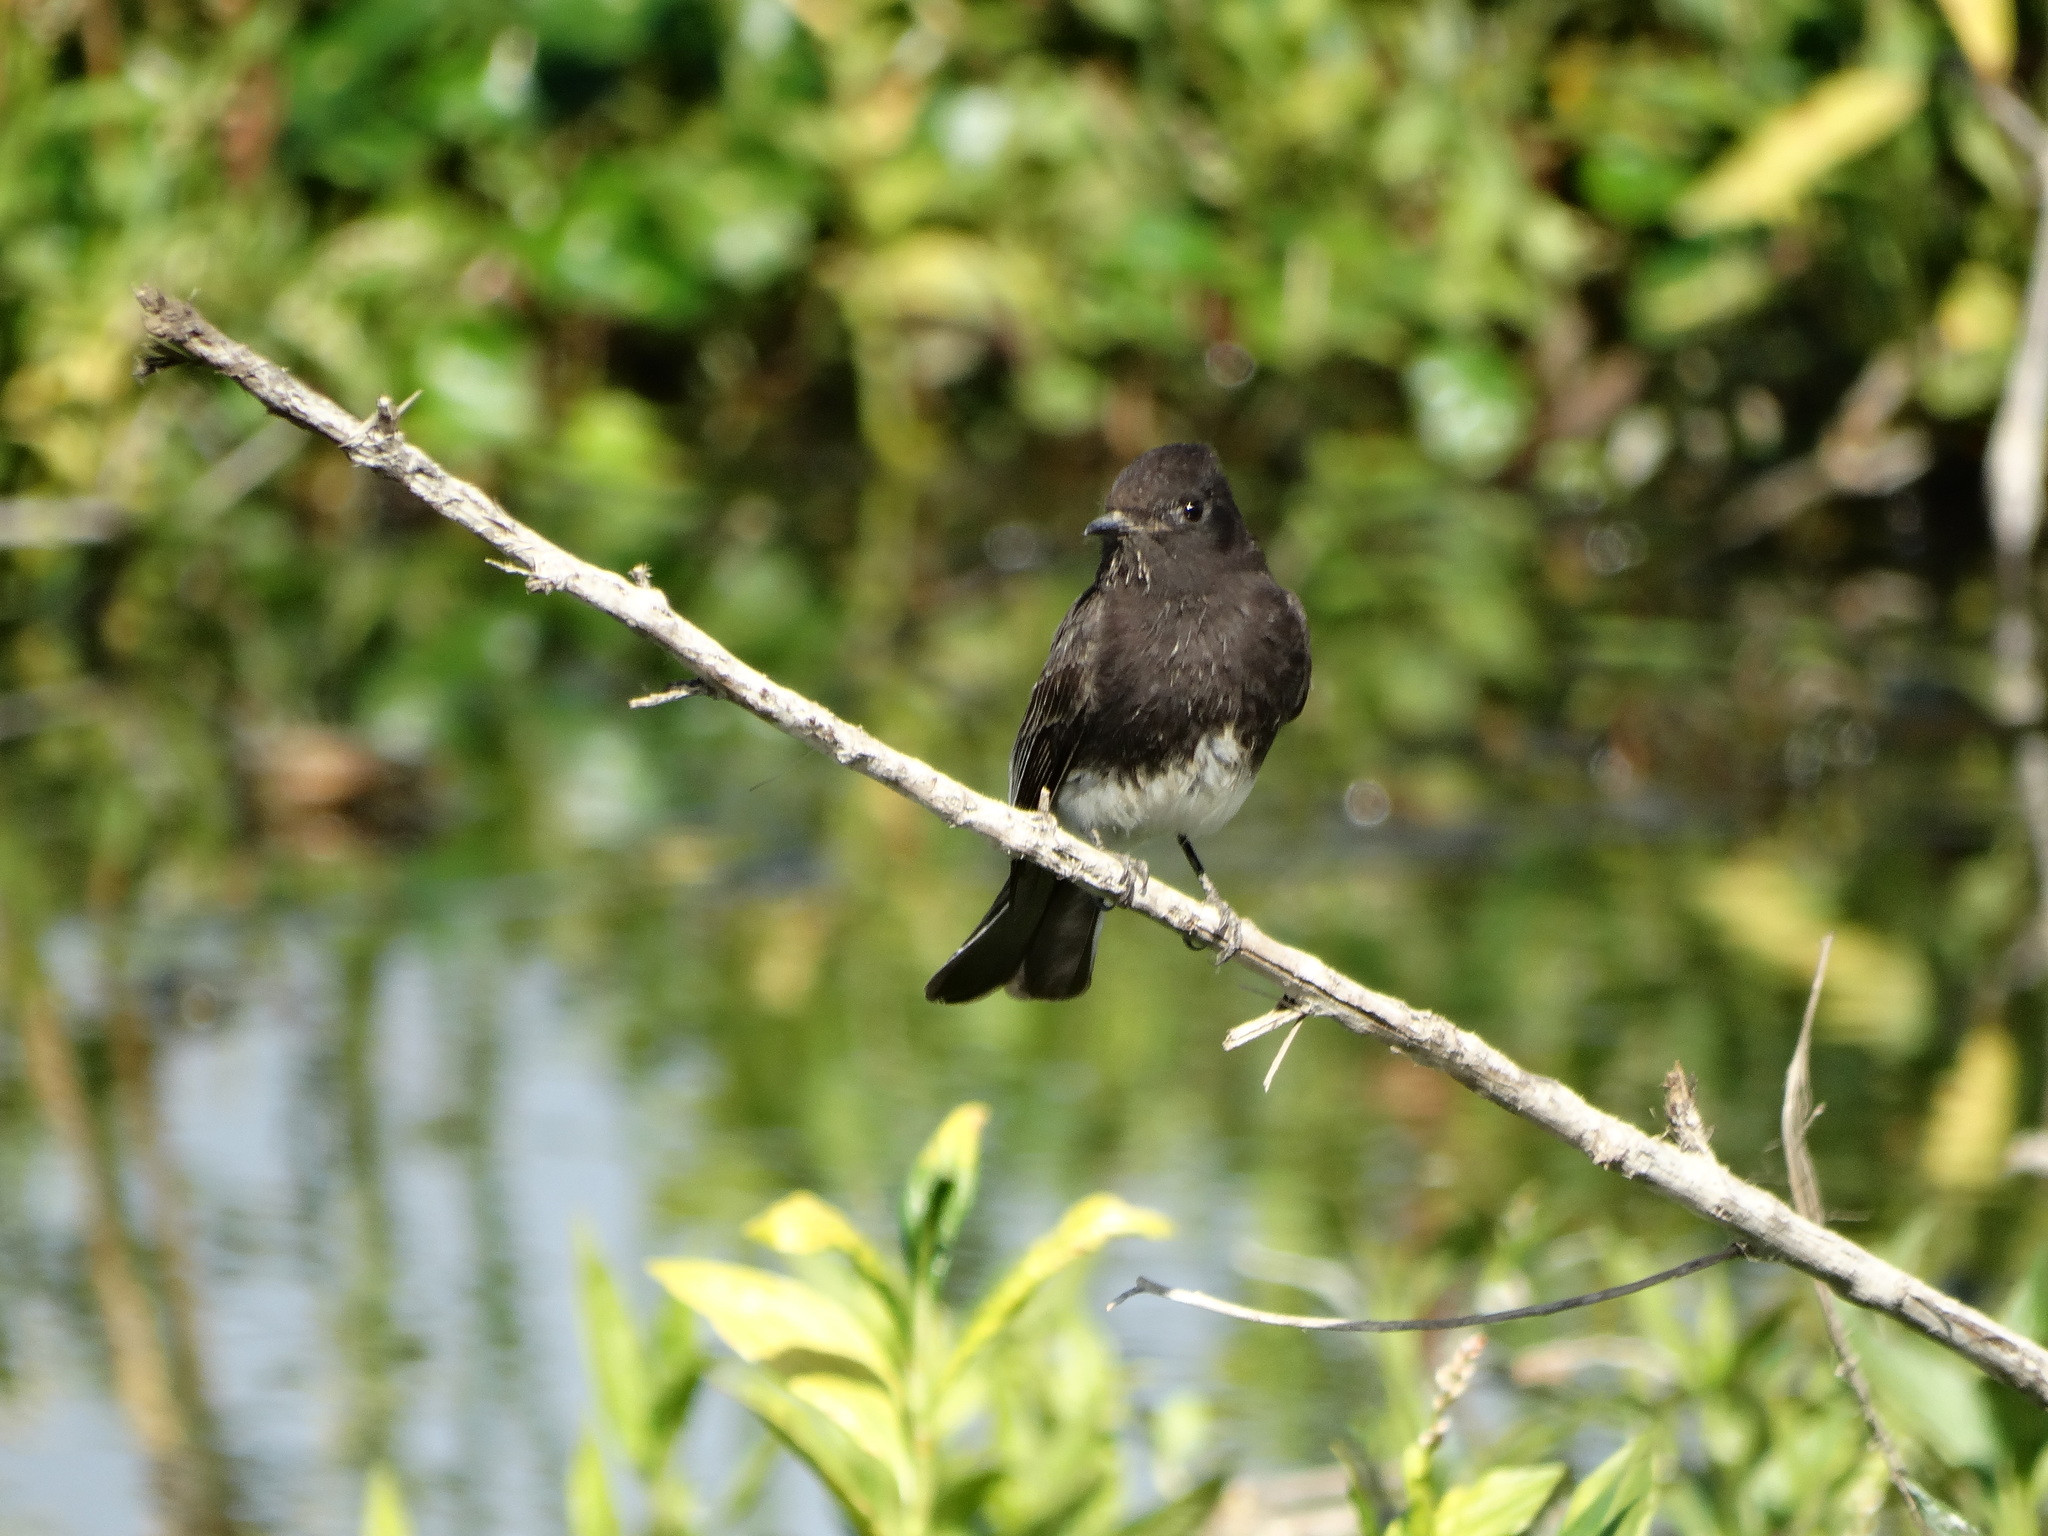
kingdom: Animalia
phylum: Chordata
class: Aves
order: Passeriformes
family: Tyrannidae
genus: Sayornis
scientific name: Sayornis nigricans
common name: Black phoebe
